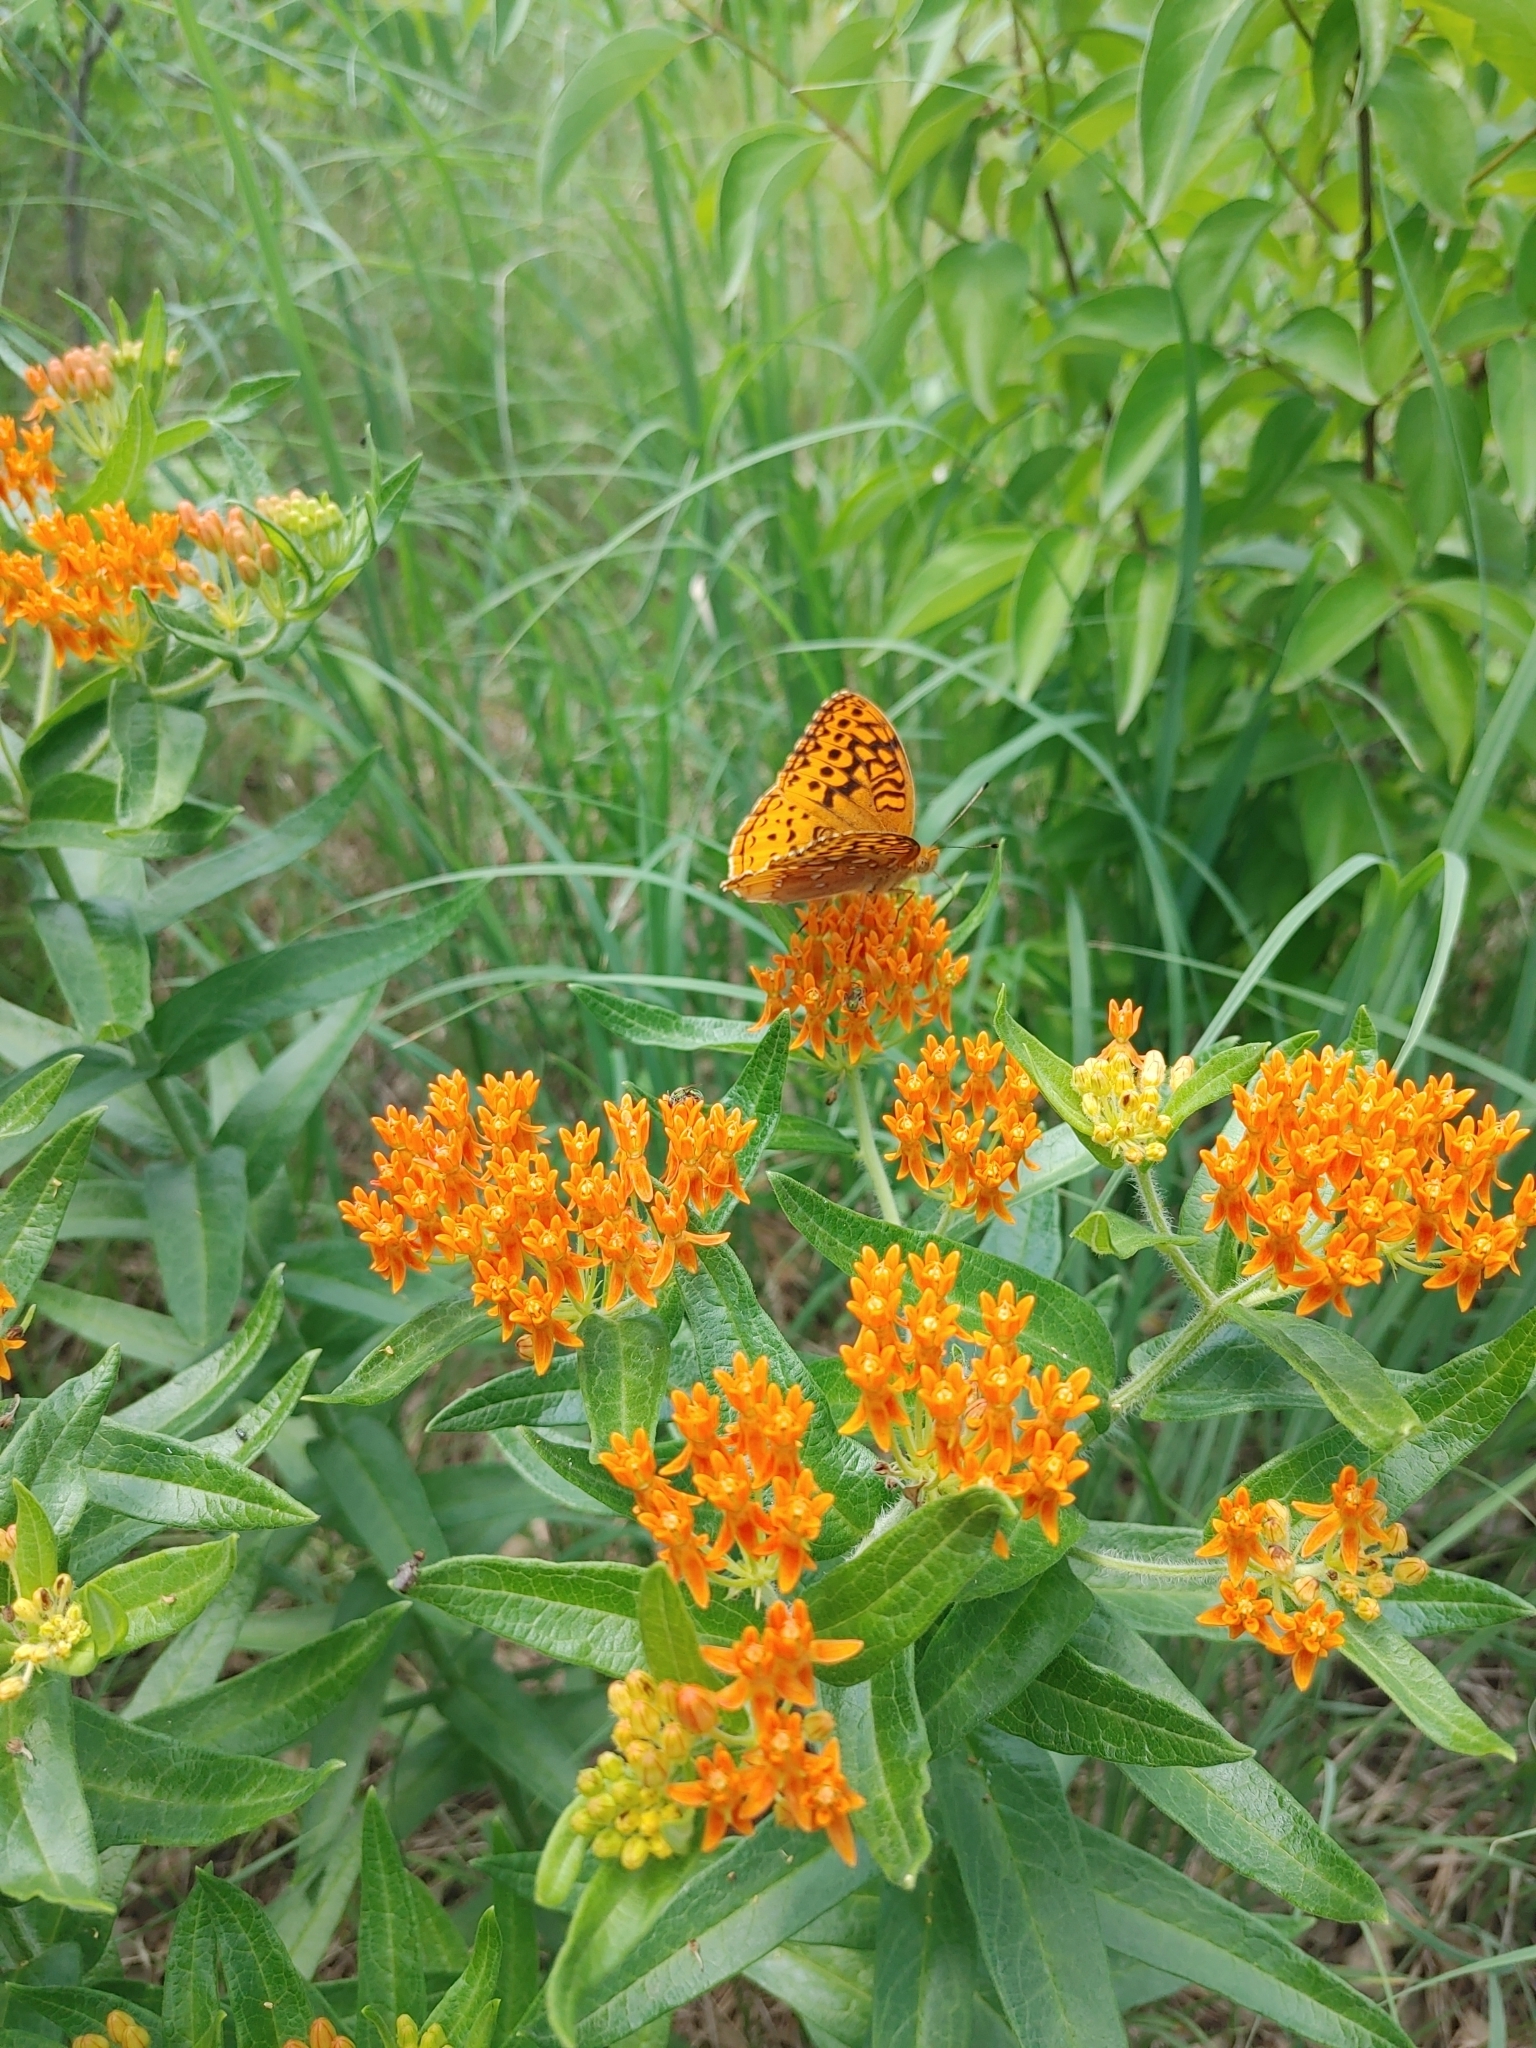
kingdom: Animalia
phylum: Arthropoda
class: Insecta
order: Lepidoptera
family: Nymphalidae
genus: Speyeria
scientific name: Speyeria cybele
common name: Great spangled fritillary
